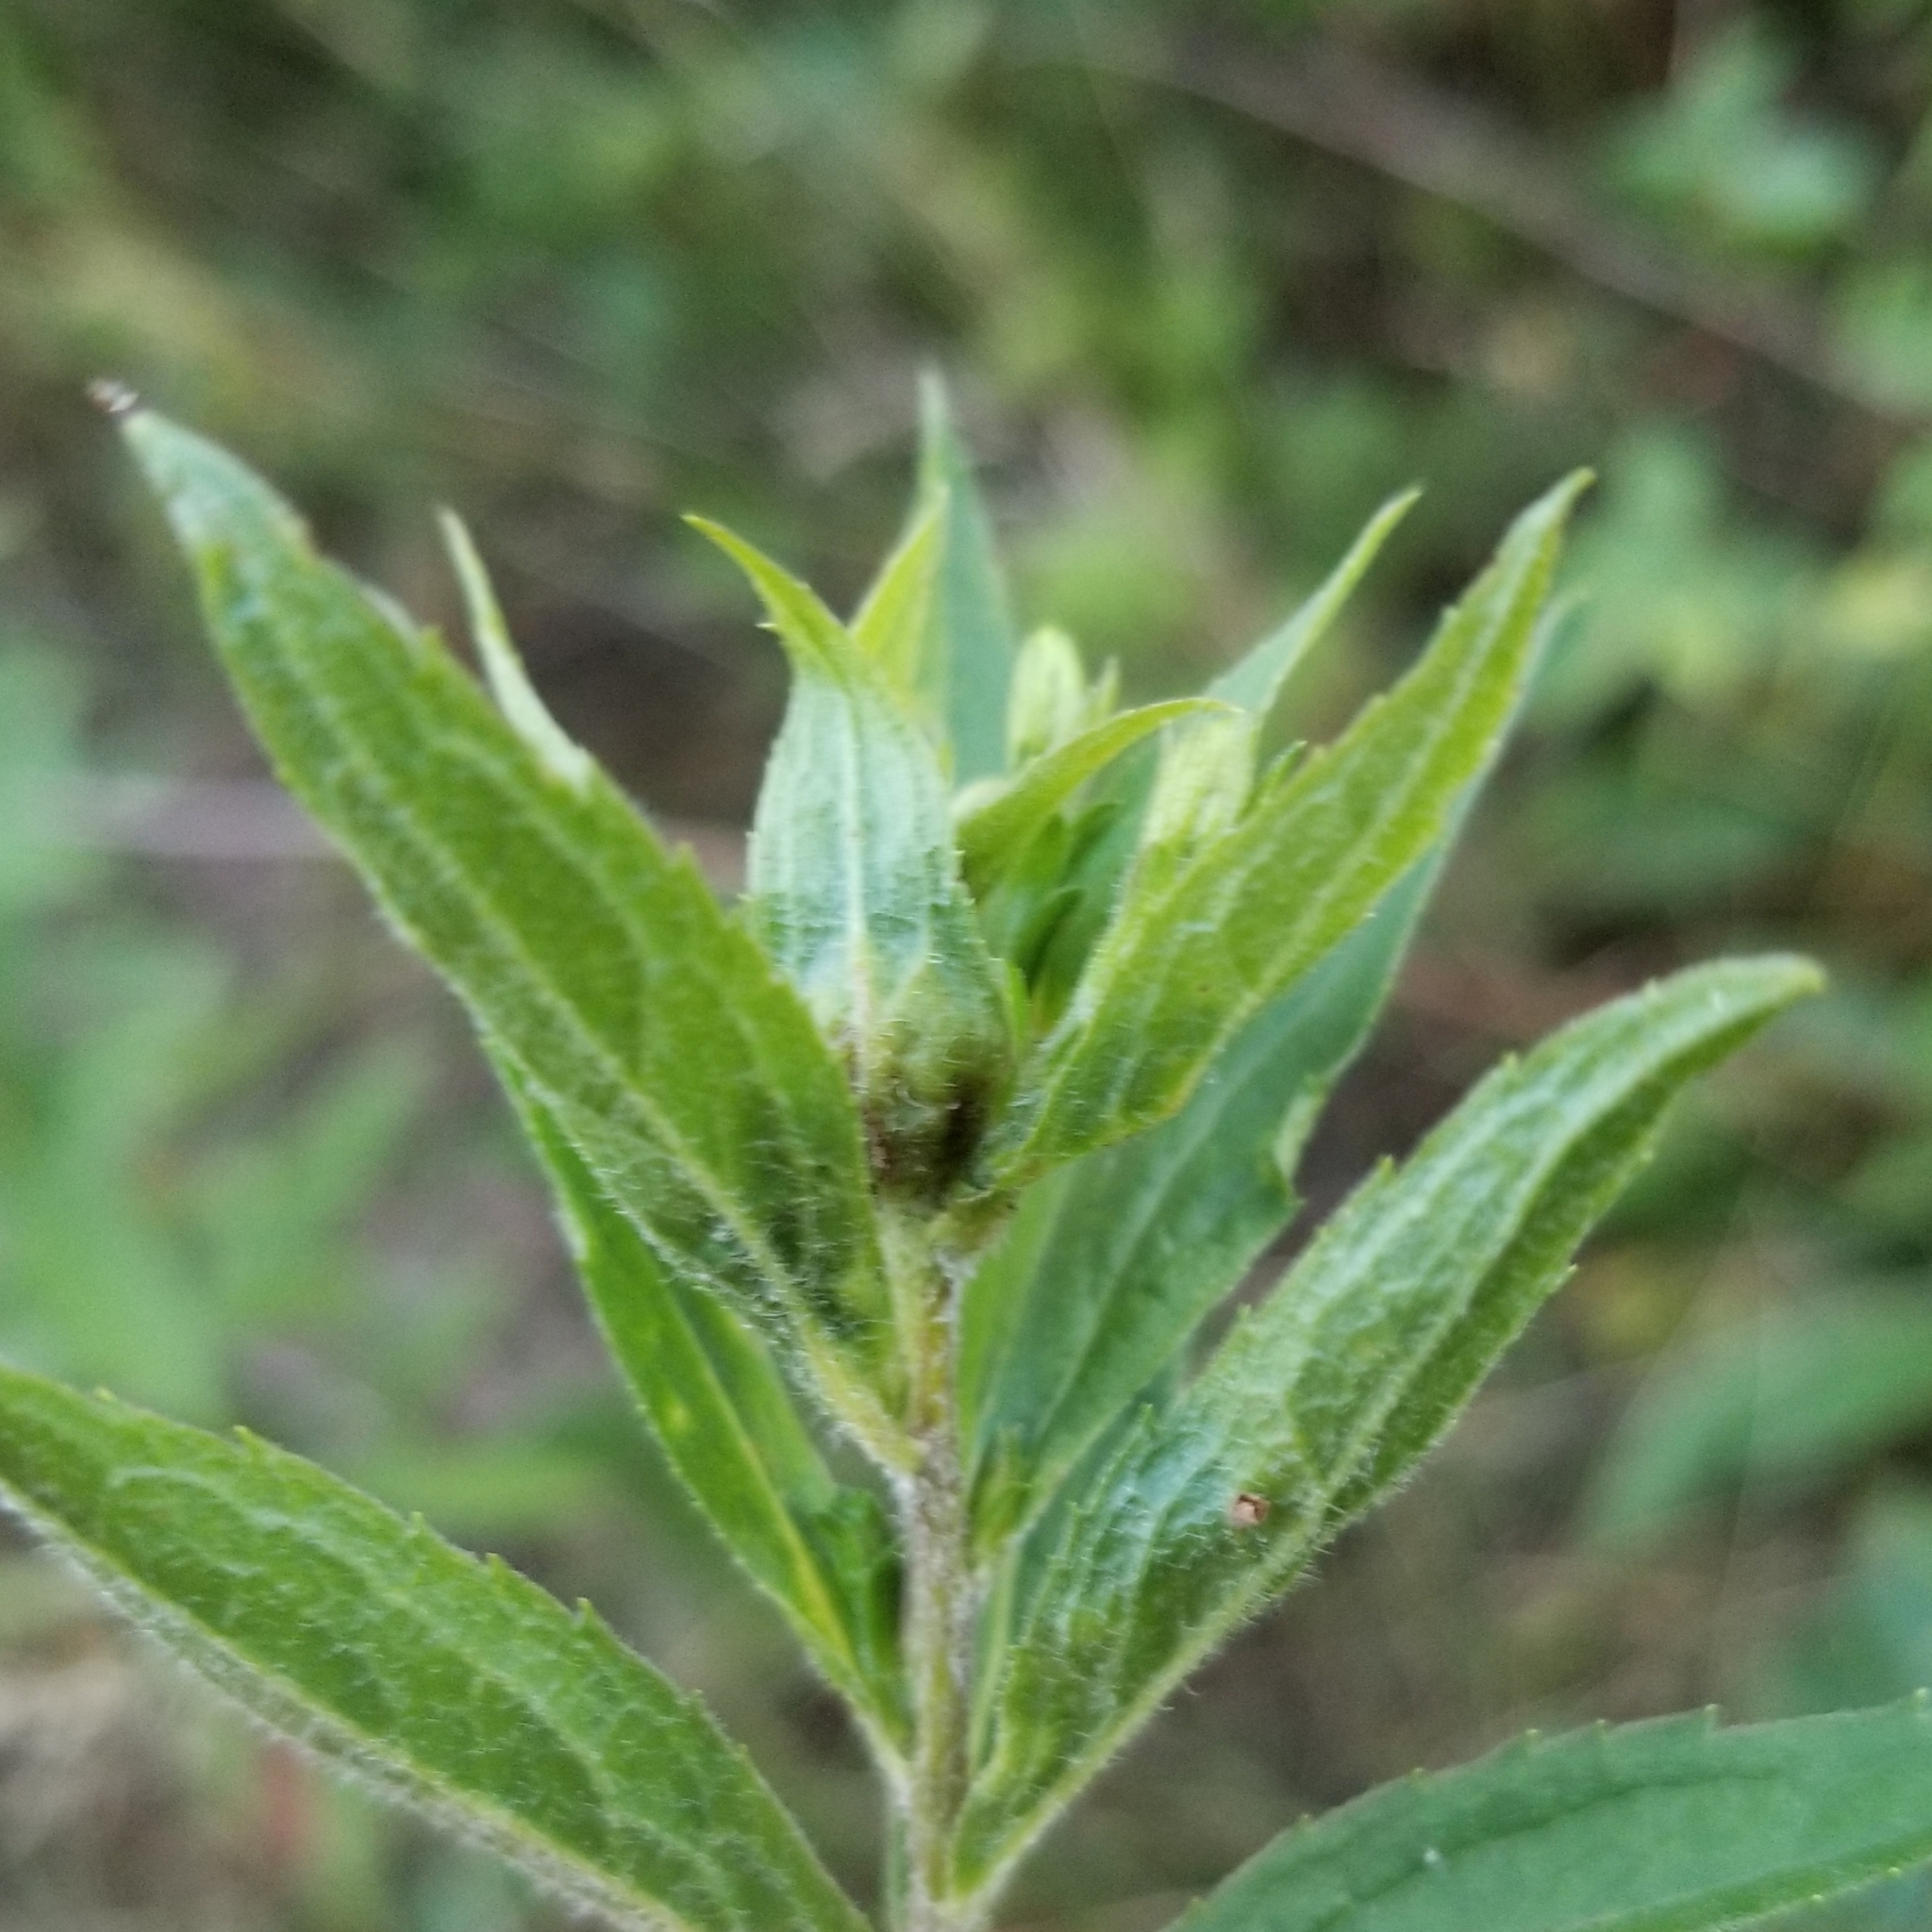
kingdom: Animalia
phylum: Arthropoda
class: Insecta
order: Diptera
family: Cecidomyiidae
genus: Dasineura
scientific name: Dasineura folliculi
